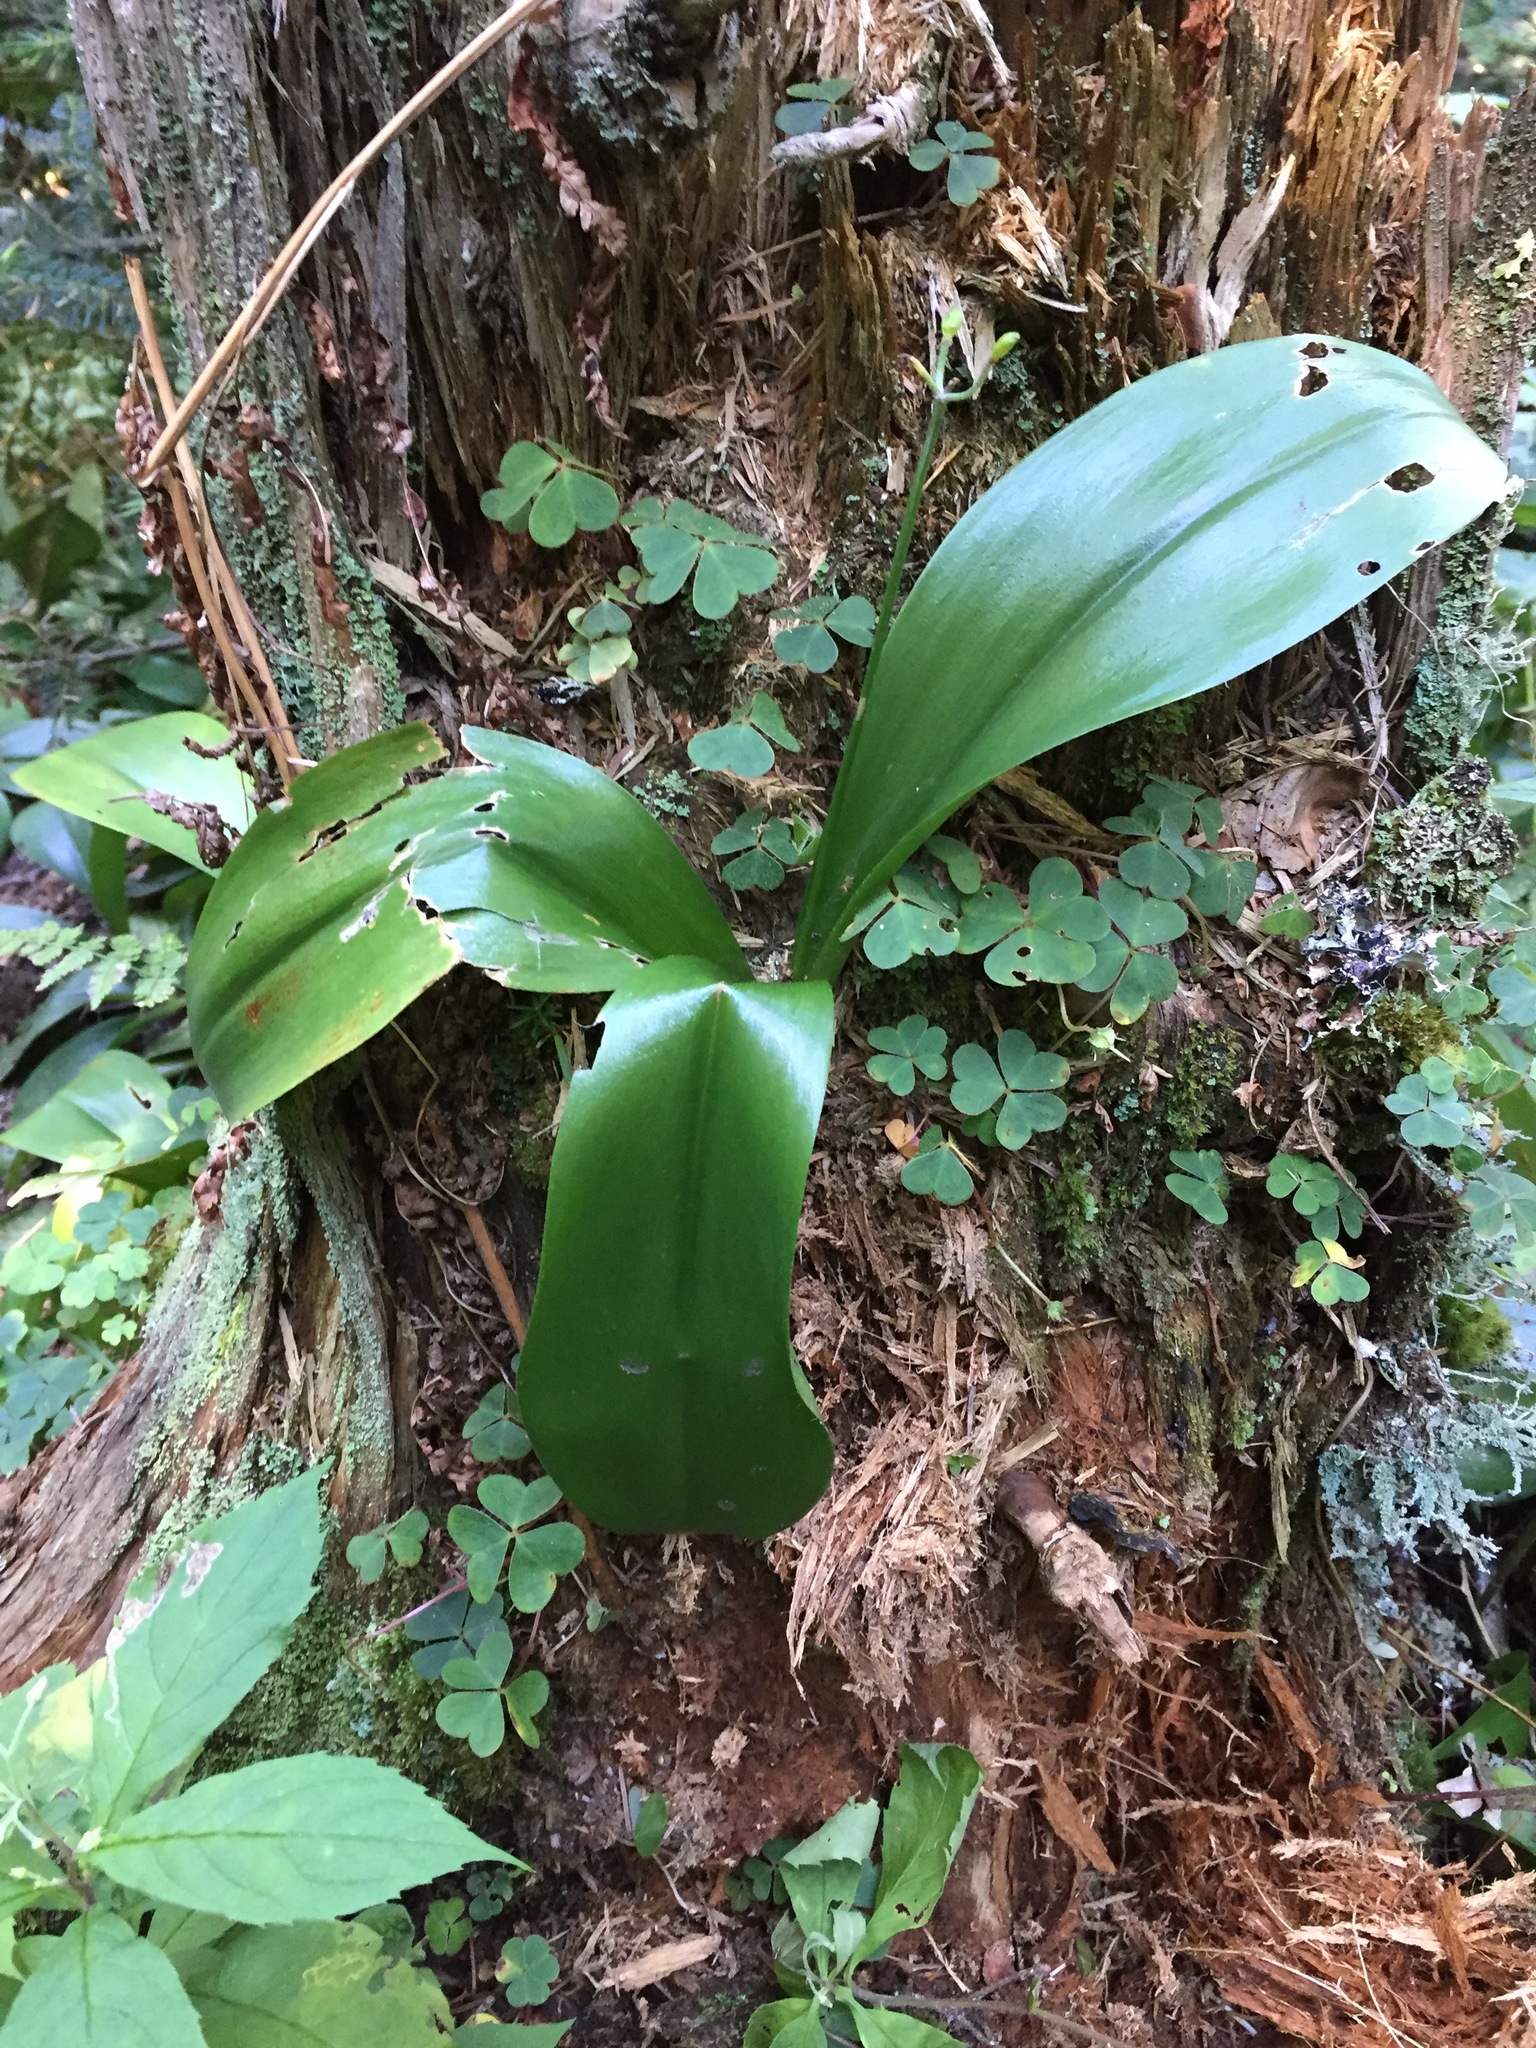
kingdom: Plantae
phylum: Tracheophyta
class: Liliopsida
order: Liliales
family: Liliaceae
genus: Clintonia
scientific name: Clintonia borealis
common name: Yellow clintonia
